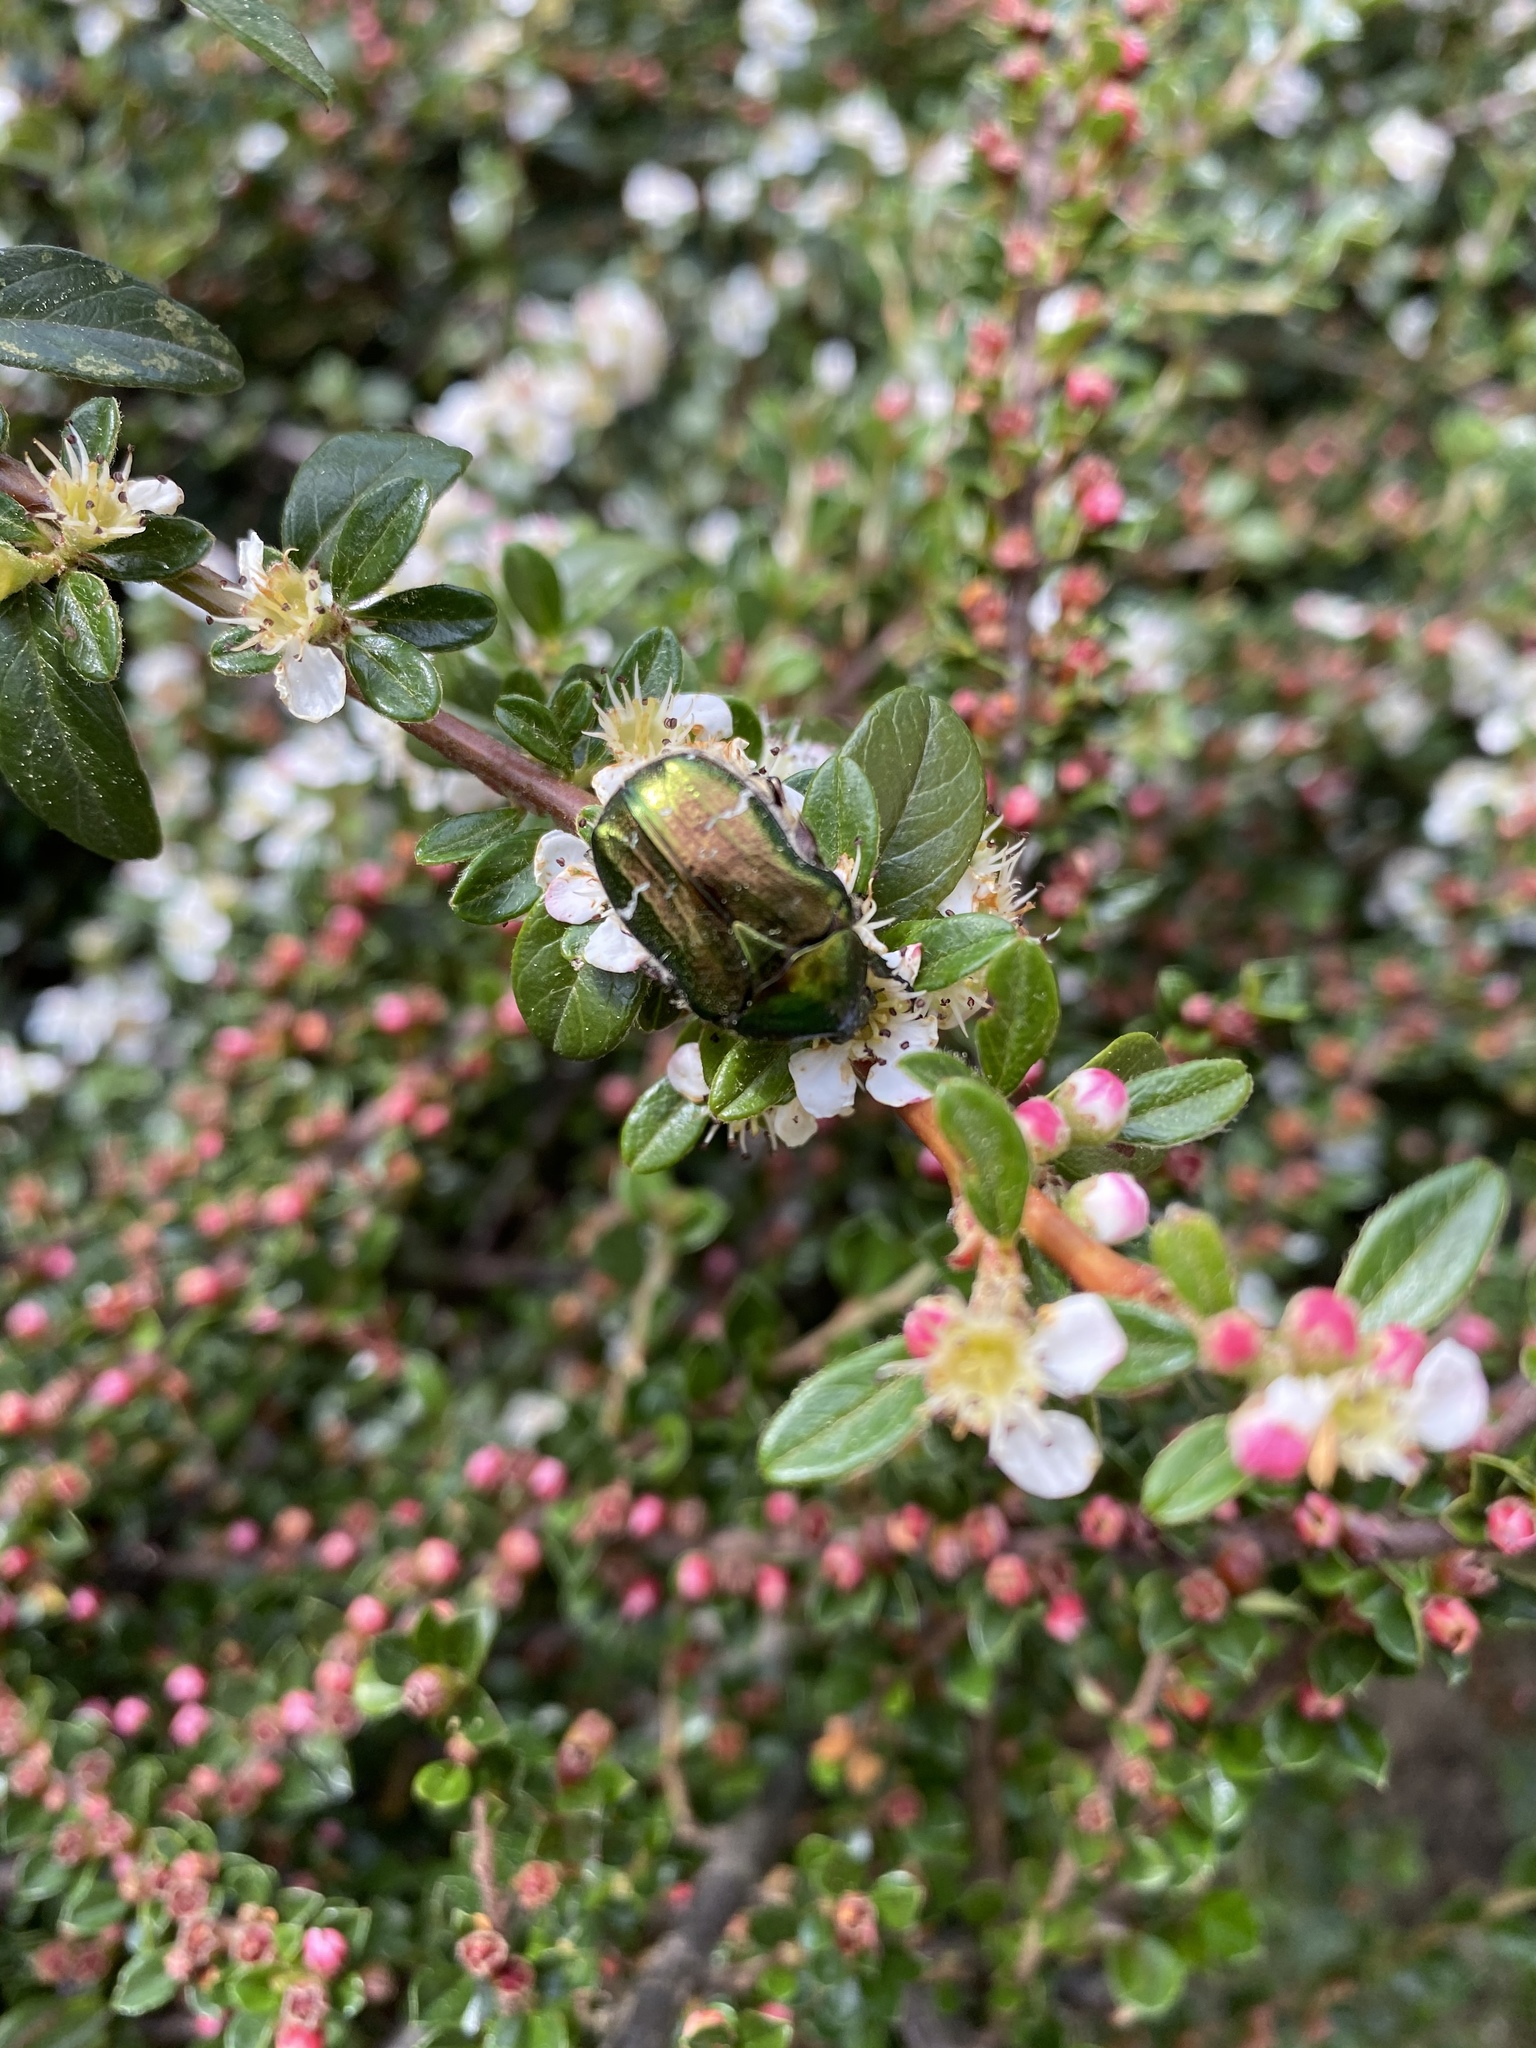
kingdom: Animalia
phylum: Arthropoda
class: Insecta
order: Coleoptera
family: Scarabaeidae
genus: Cetonia
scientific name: Cetonia aurata
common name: Rose chafer
